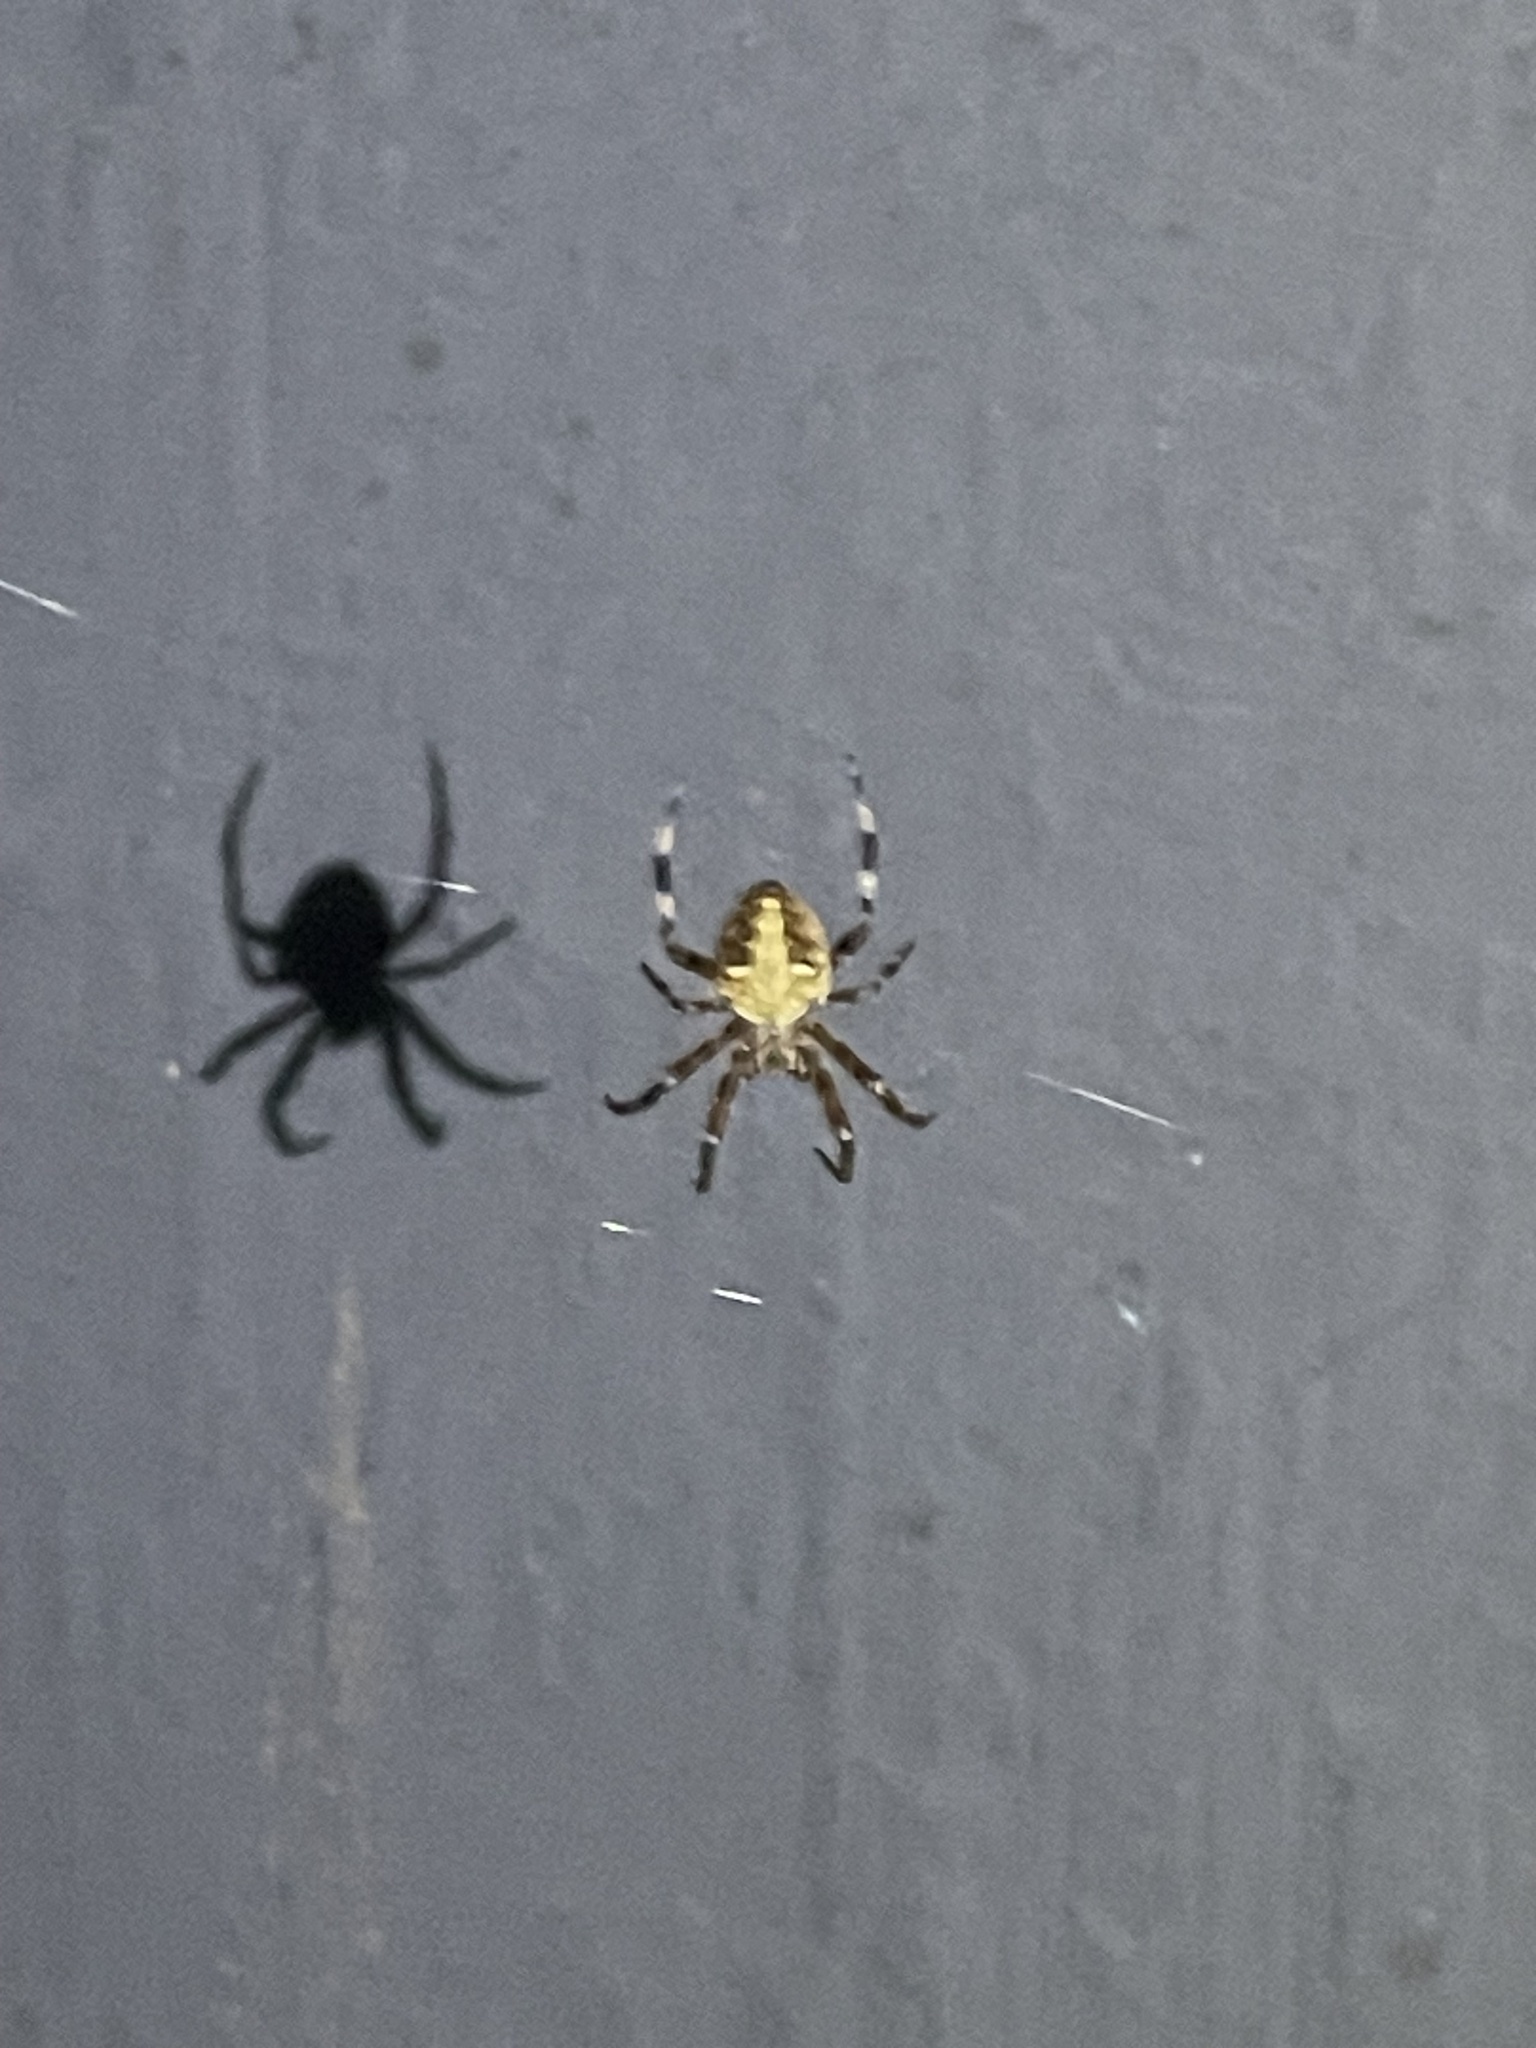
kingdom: Animalia
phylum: Arthropoda
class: Arachnida
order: Araneae
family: Araneidae
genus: Neoscona
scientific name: Neoscona domiciliorum
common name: Red-femured spotted orbweaver
